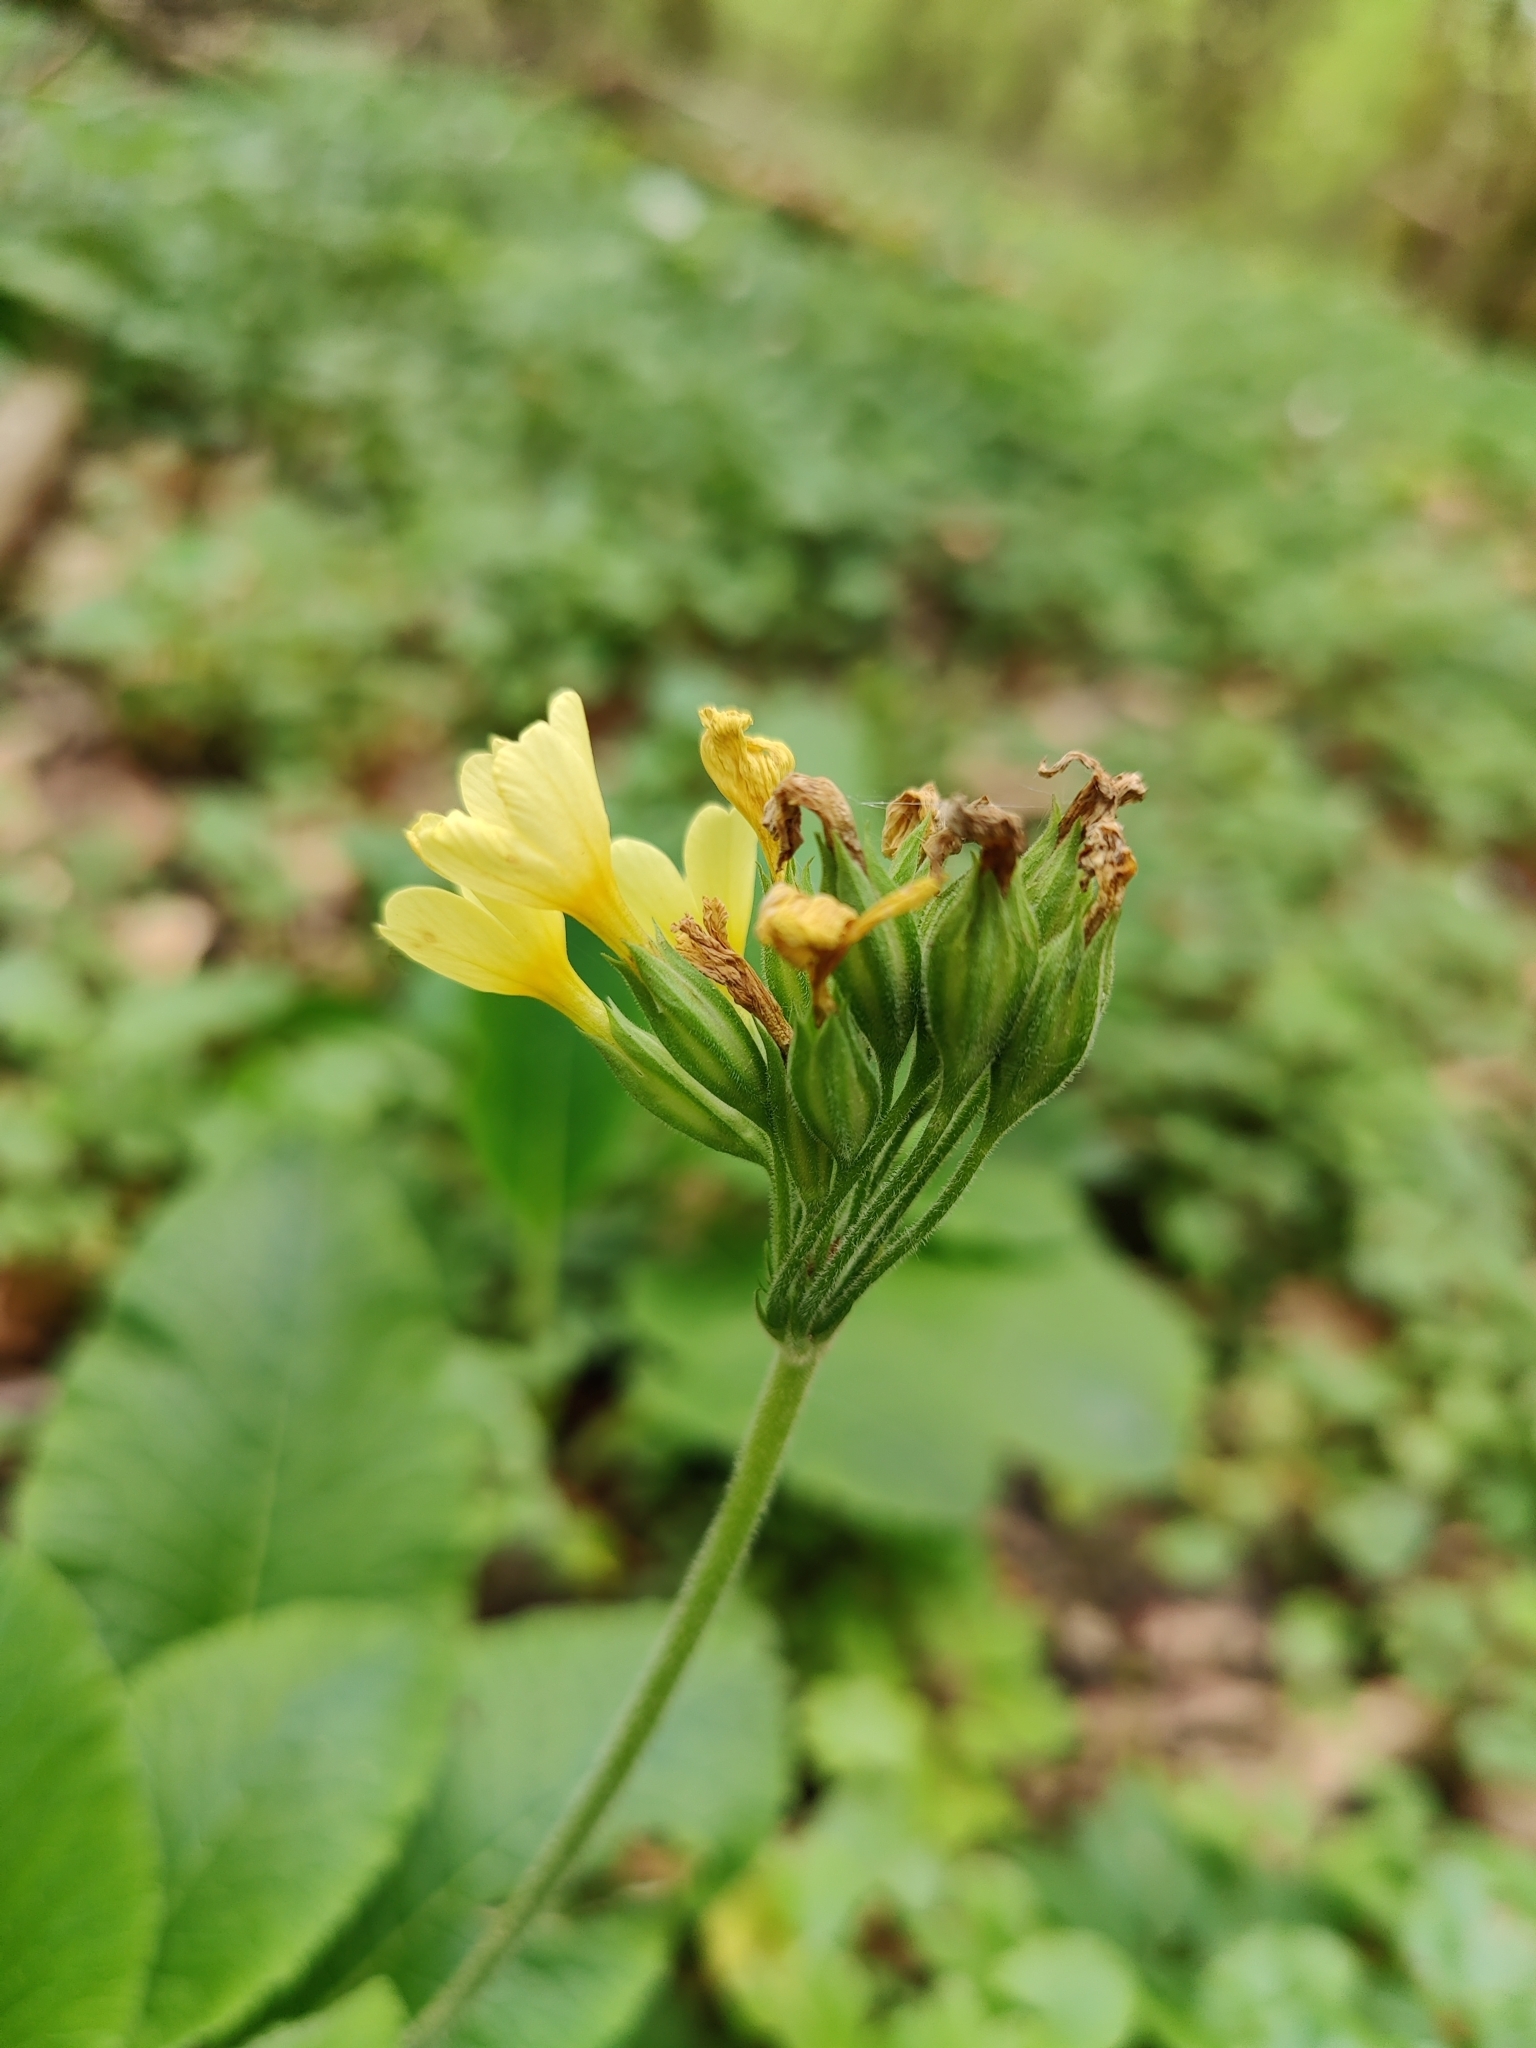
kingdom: Plantae
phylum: Tracheophyta
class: Magnoliopsida
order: Ericales
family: Primulaceae
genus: Primula
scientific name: Primula elatior
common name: Oxlip
